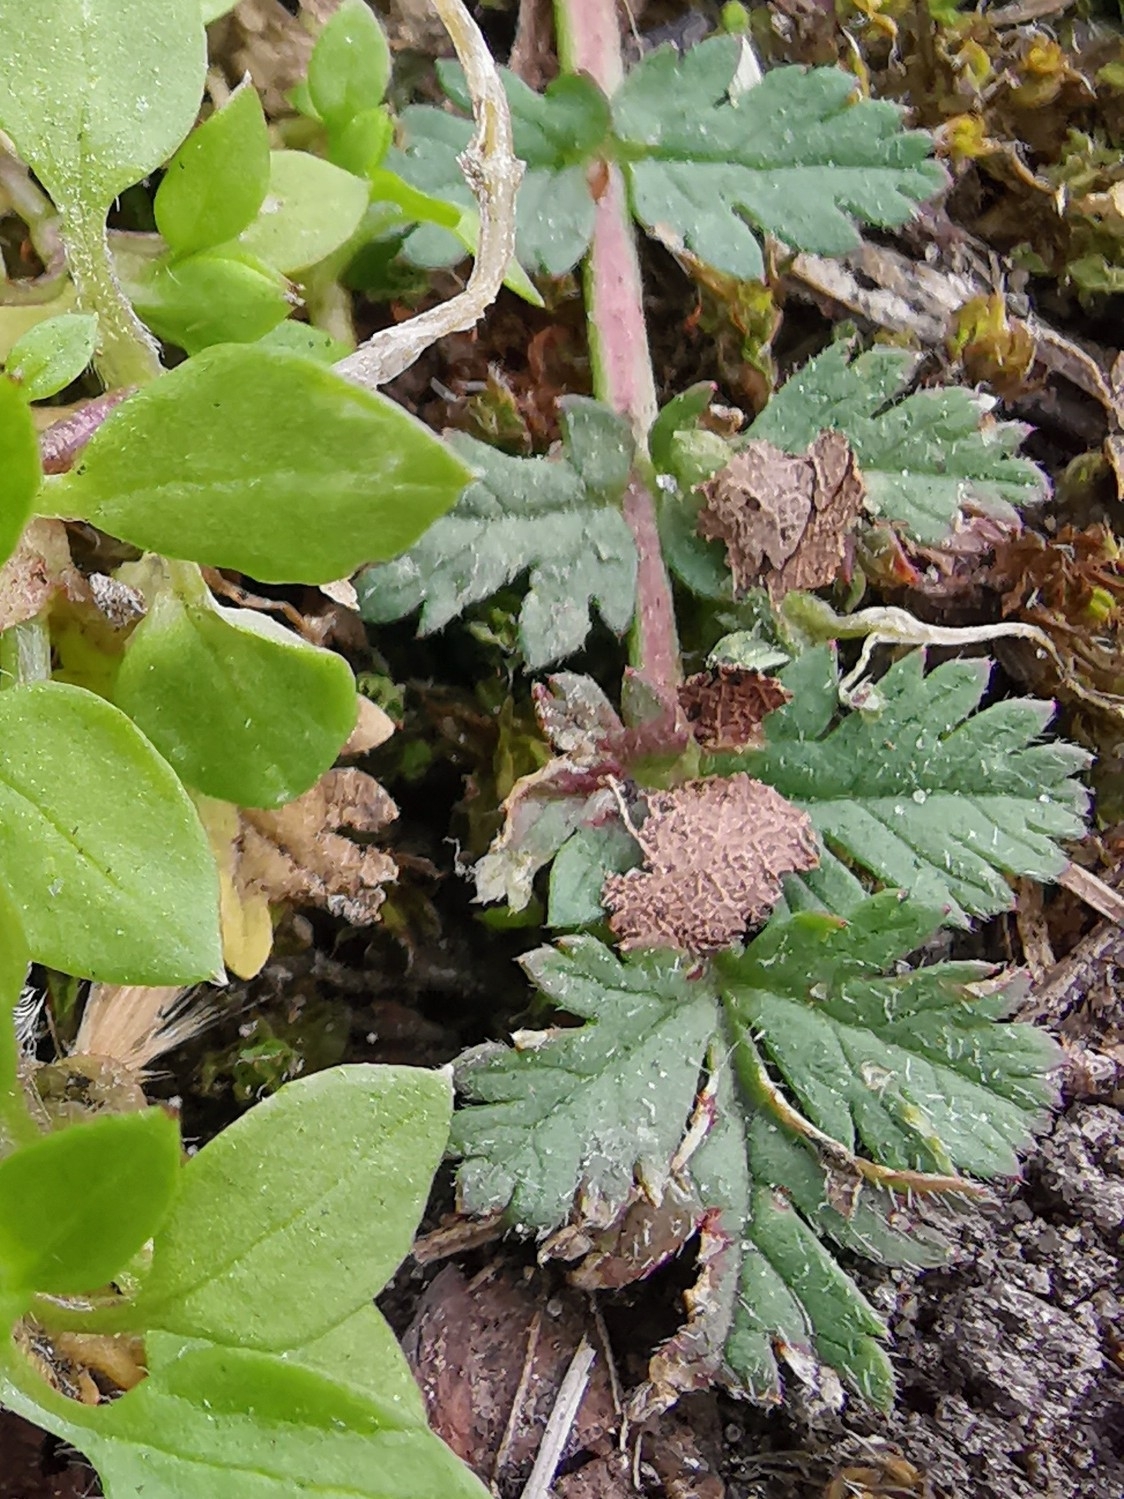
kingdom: Plantae
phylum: Tracheophyta
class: Magnoliopsida
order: Geraniales
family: Geraniaceae
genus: Erodium
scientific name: Erodium cicutarium
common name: Common stork's-bill
